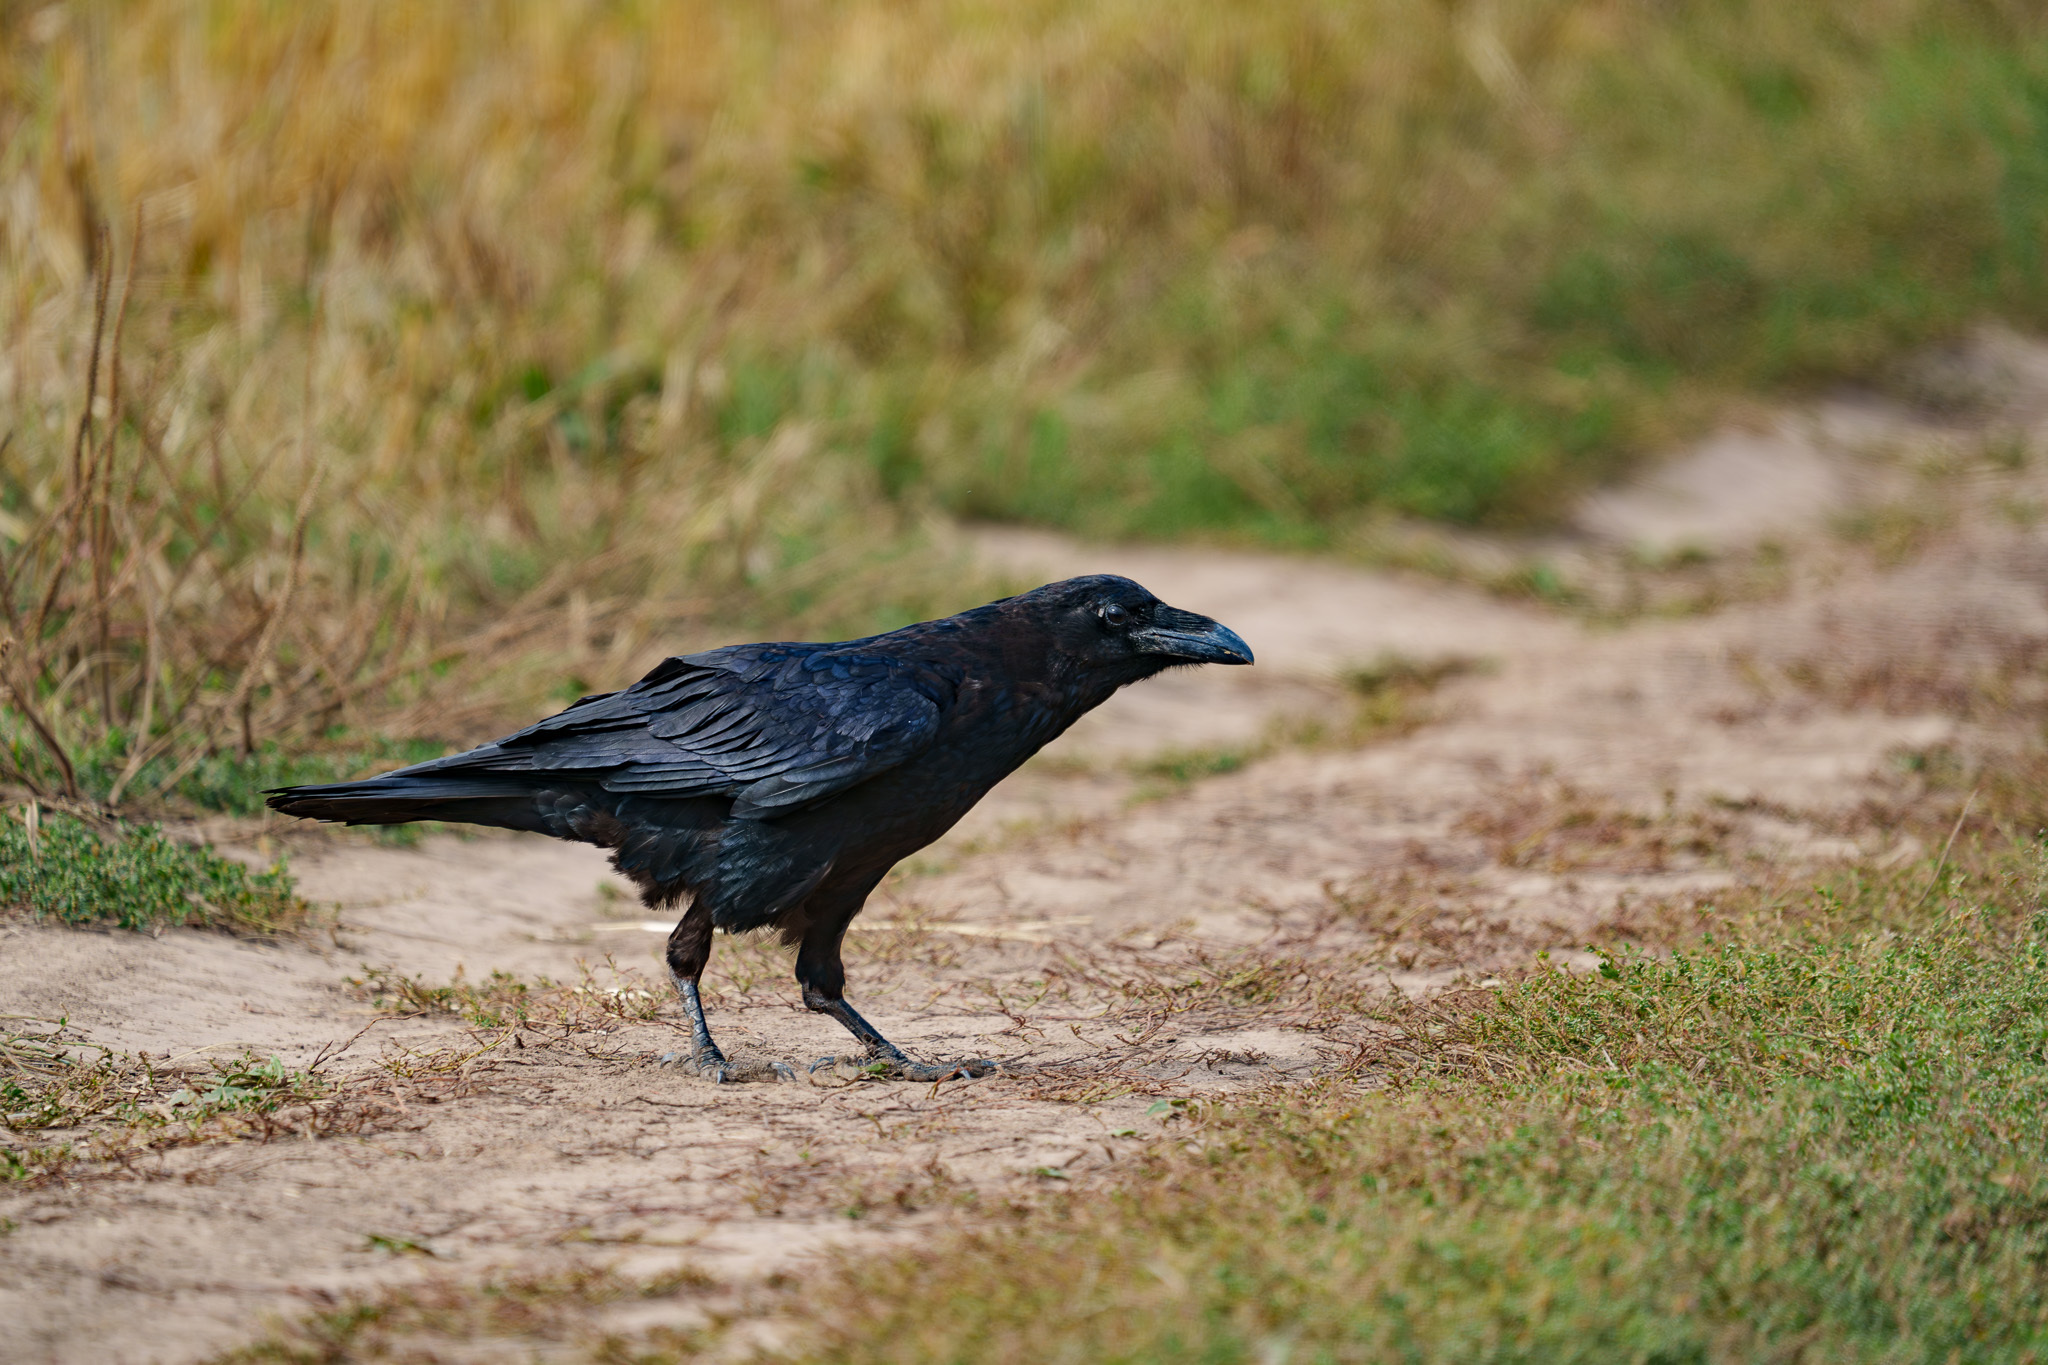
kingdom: Animalia
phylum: Chordata
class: Aves
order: Passeriformes
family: Corvidae
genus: Corvus
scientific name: Corvus corax
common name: Common raven
